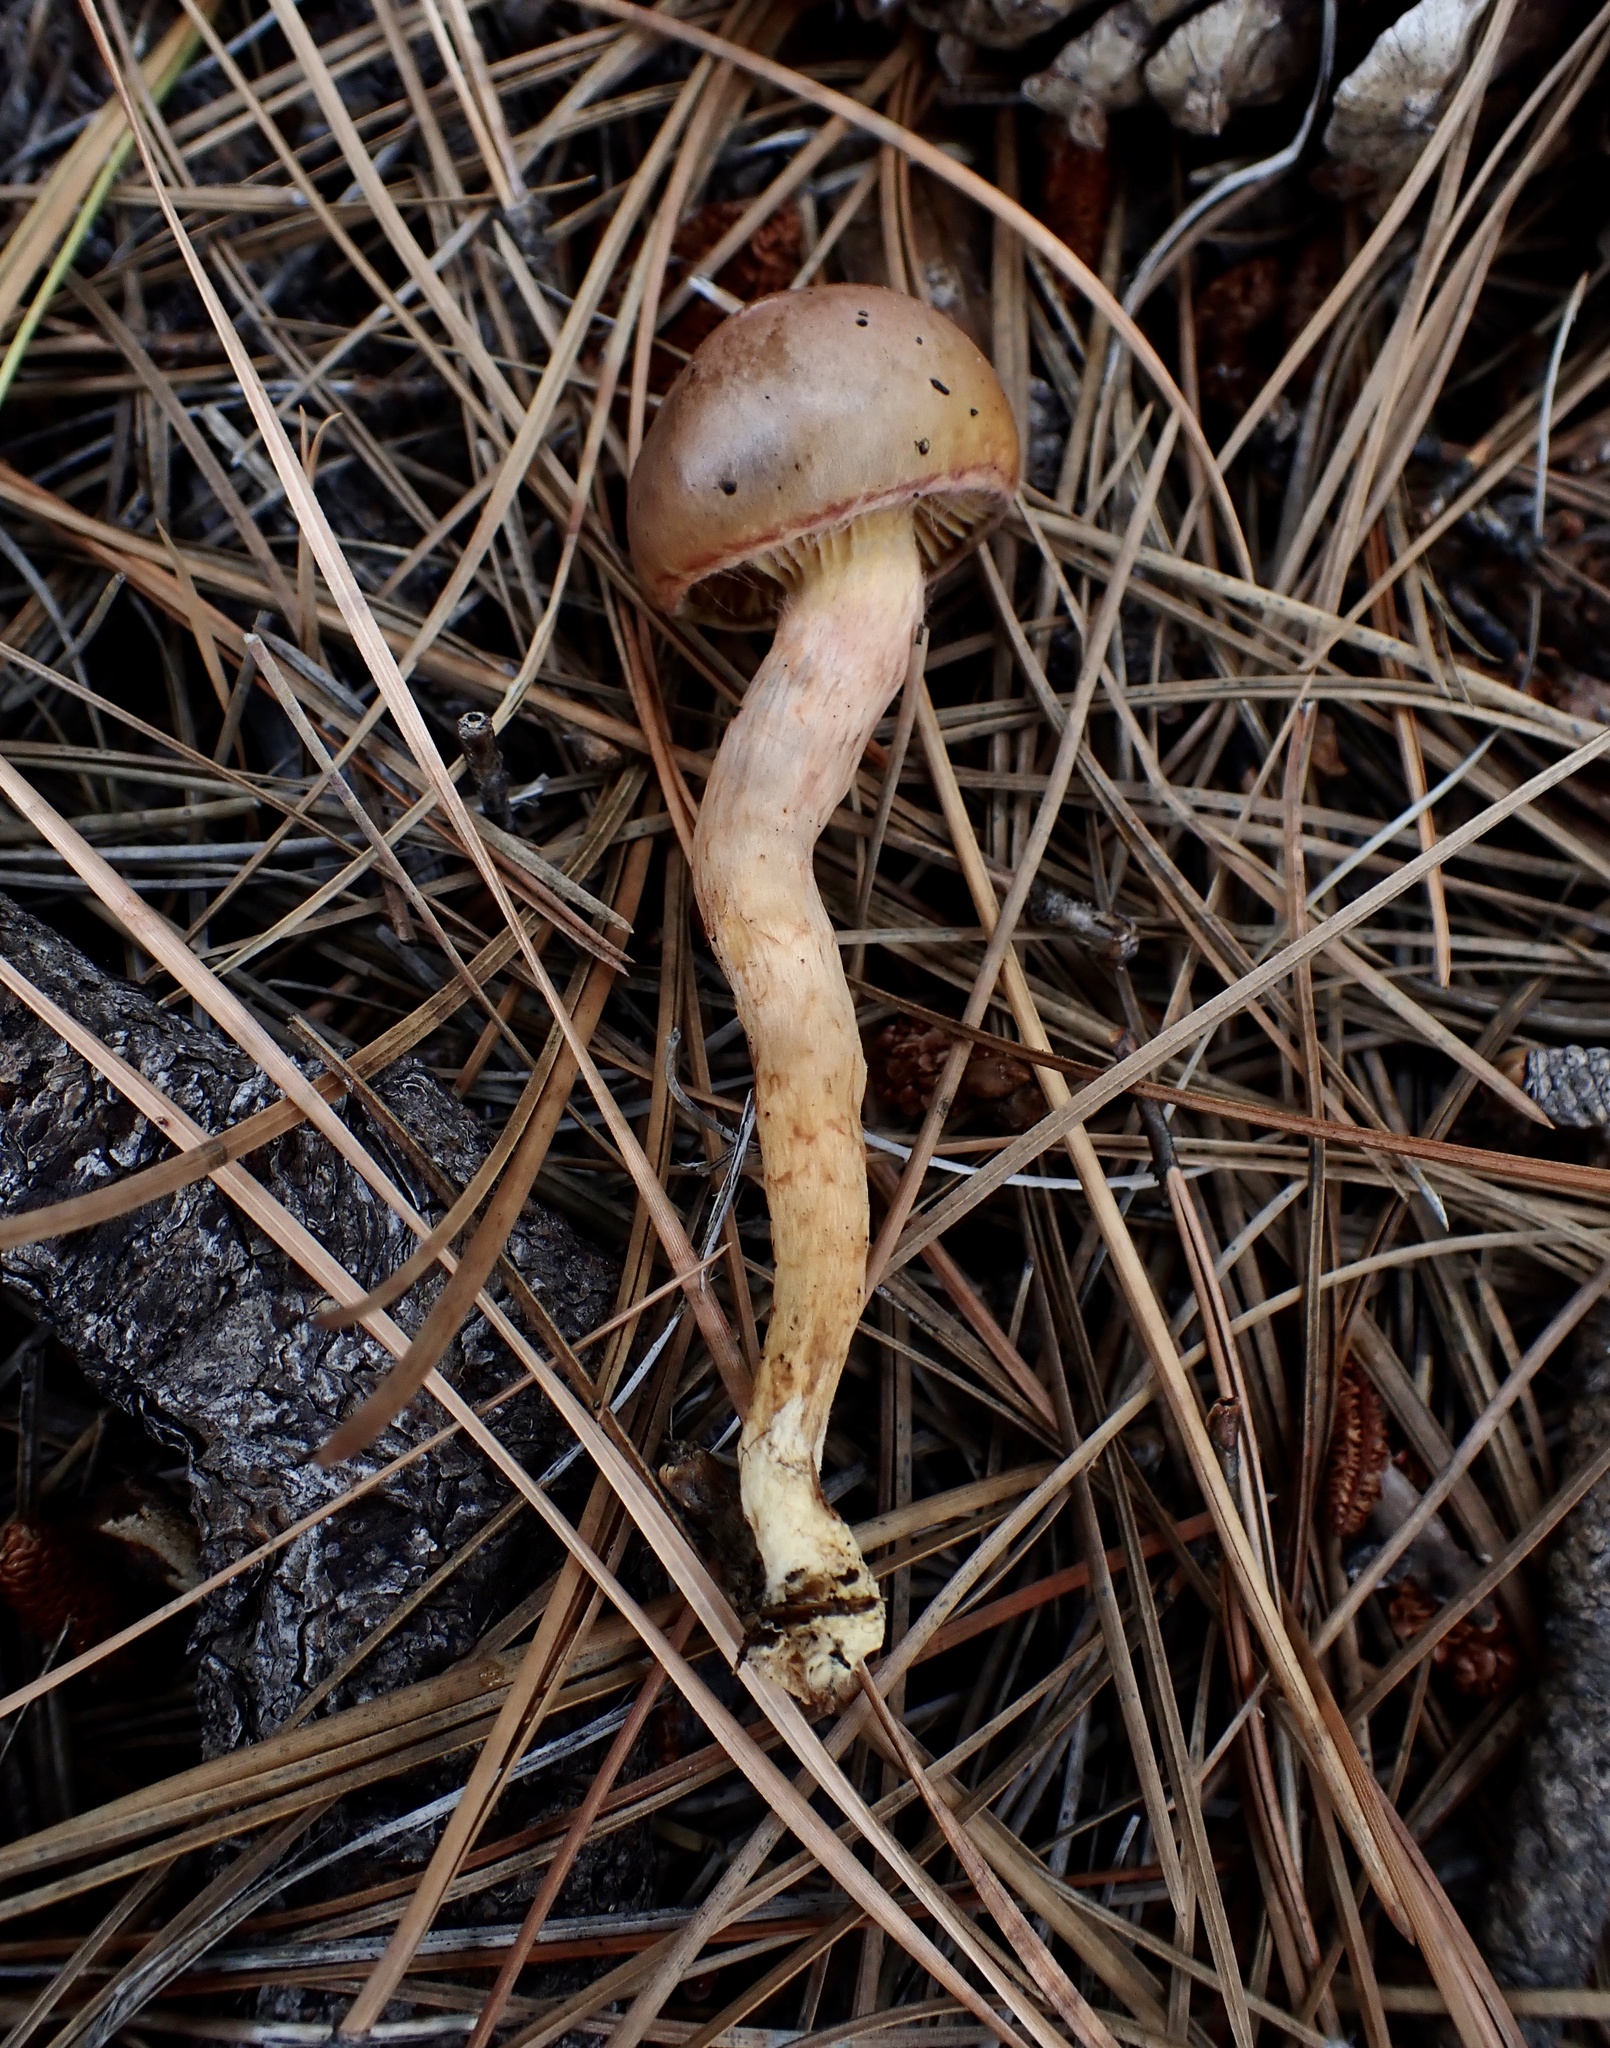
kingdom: Fungi
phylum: Basidiomycota
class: Agaricomycetes
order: Boletales
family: Gomphidiaceae
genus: Chroogomphus
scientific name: Chroogomphus vinicolor
